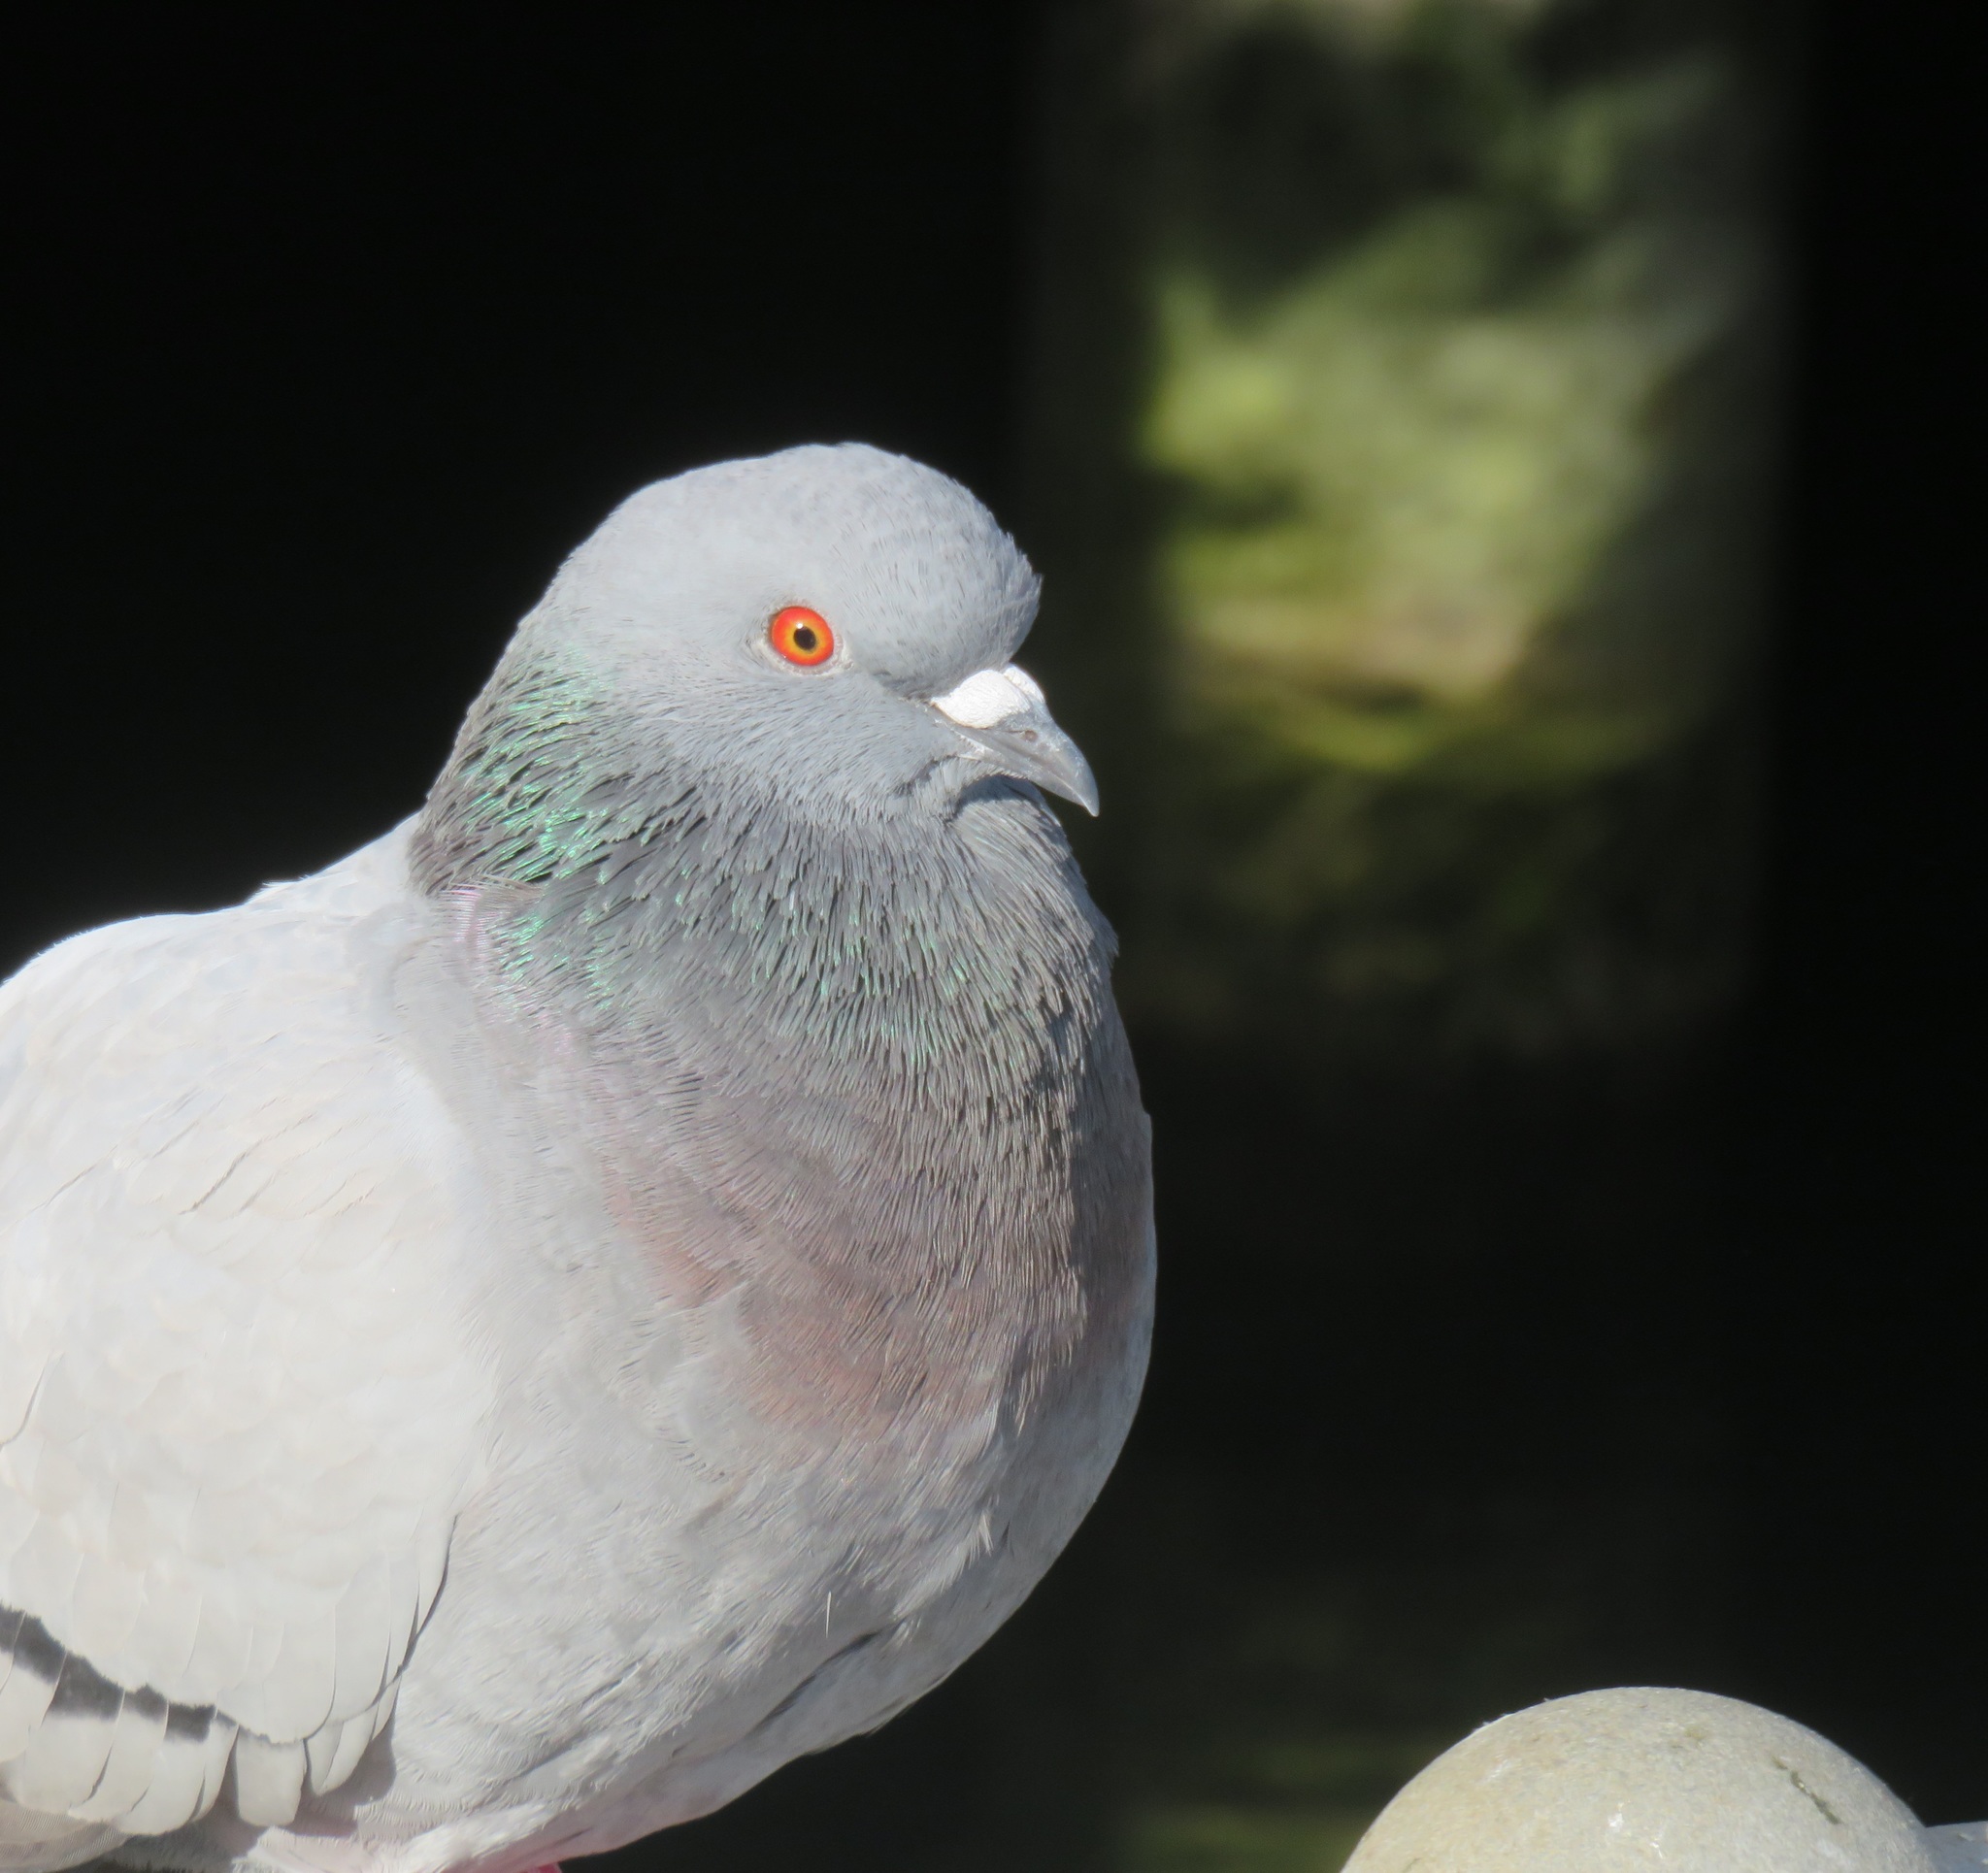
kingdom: Animalia
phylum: Chordata
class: Aves
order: Columbiformes
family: Columbidae
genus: Columba
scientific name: Columba livia
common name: Rock pigeon
